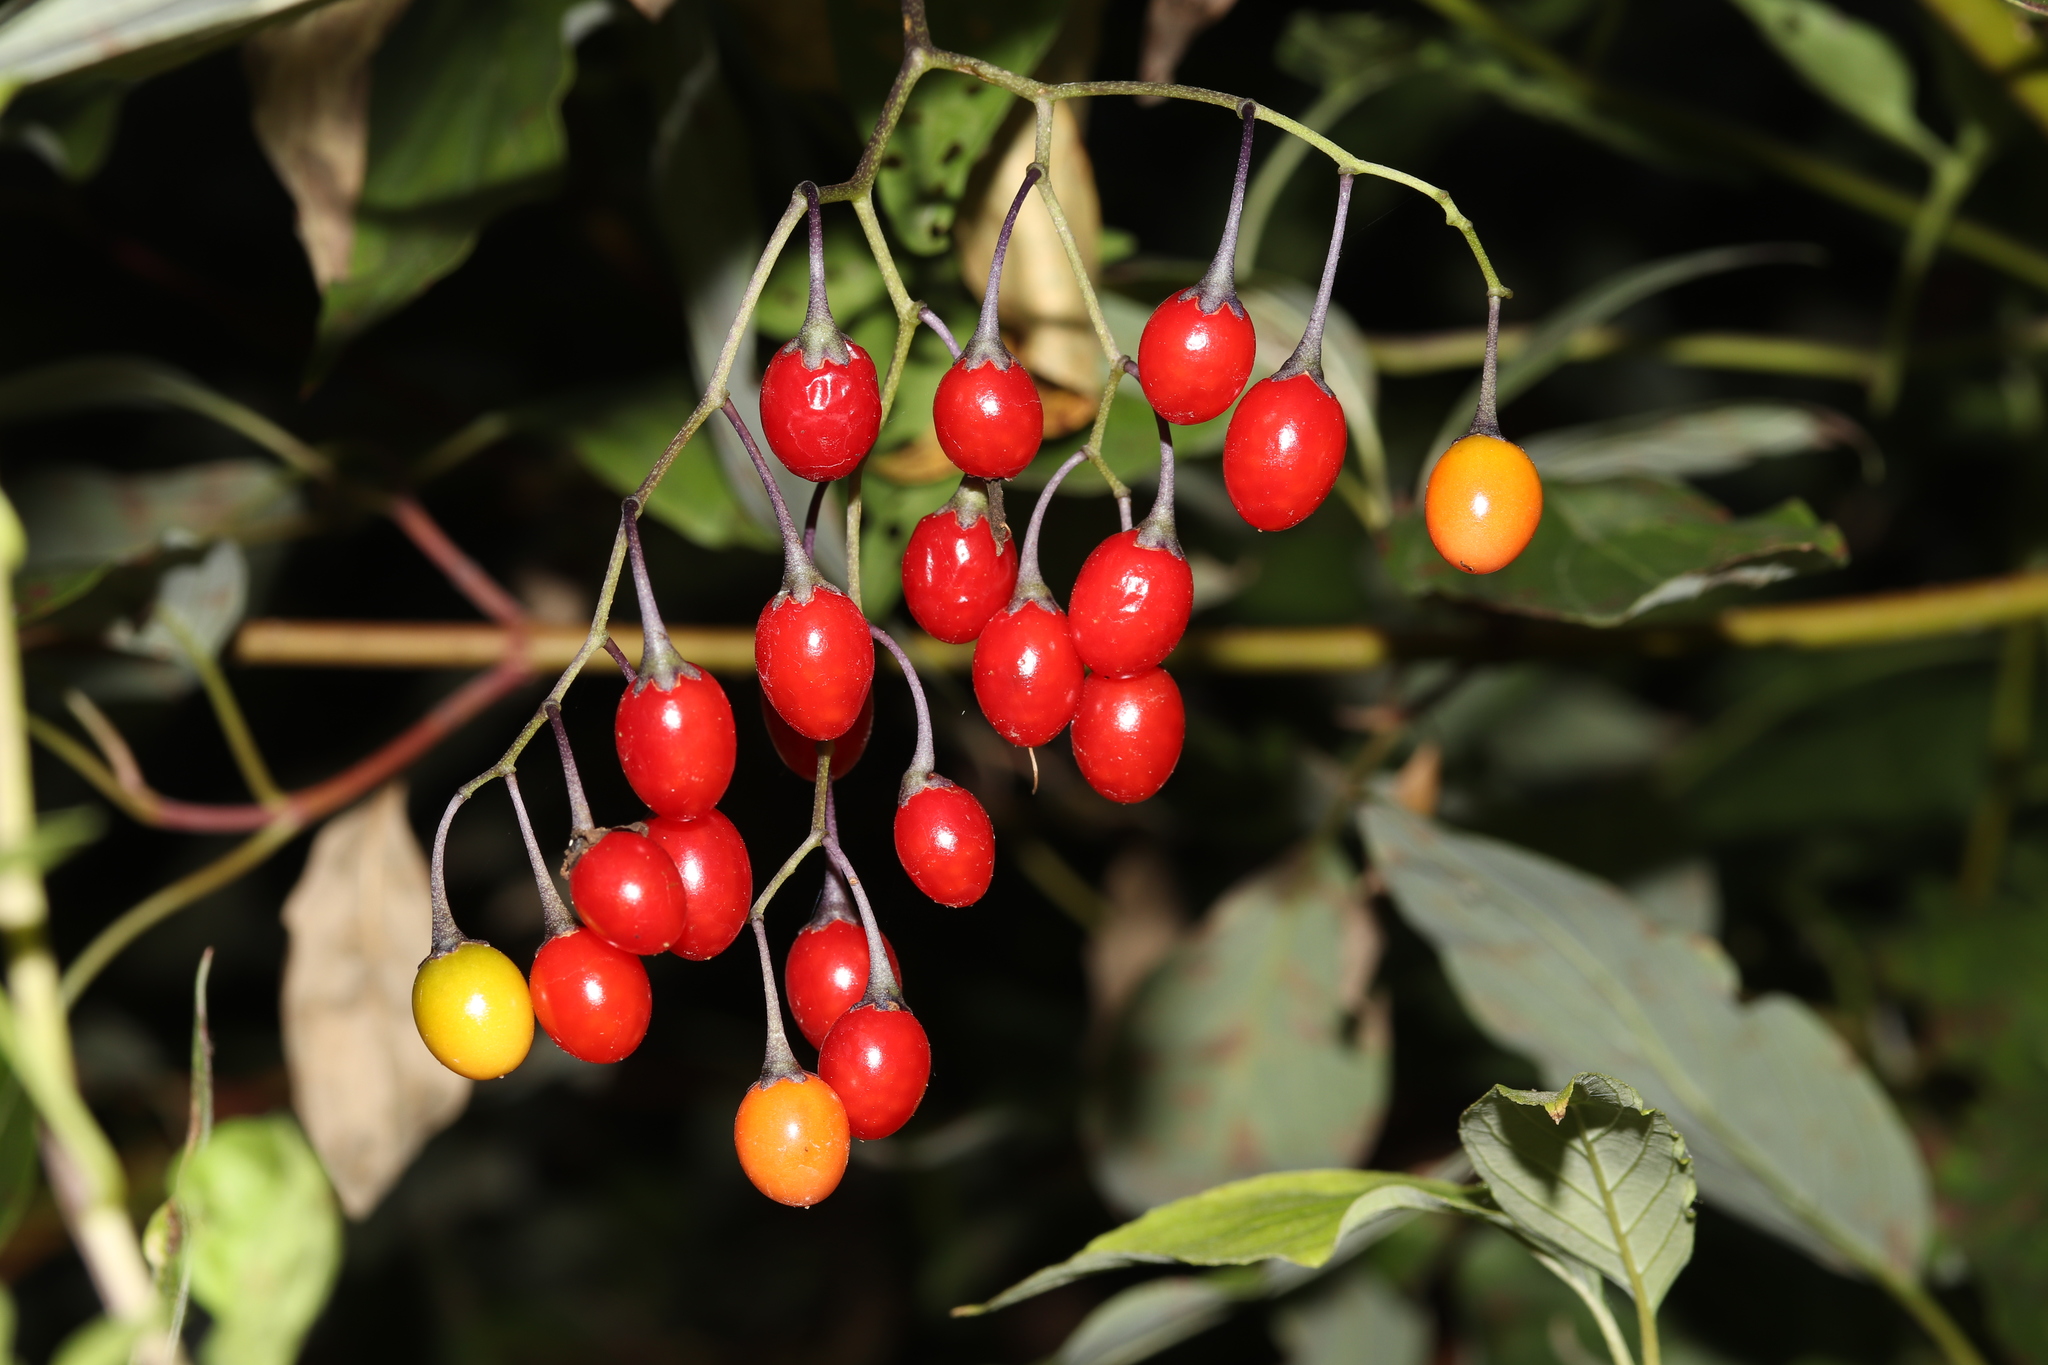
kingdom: Plantae
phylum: Tracheophyta
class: Magnoliopsida
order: Solanales
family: Solanaceae
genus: Solanum
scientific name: Solanum dulcamara
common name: Climbing nightshade
